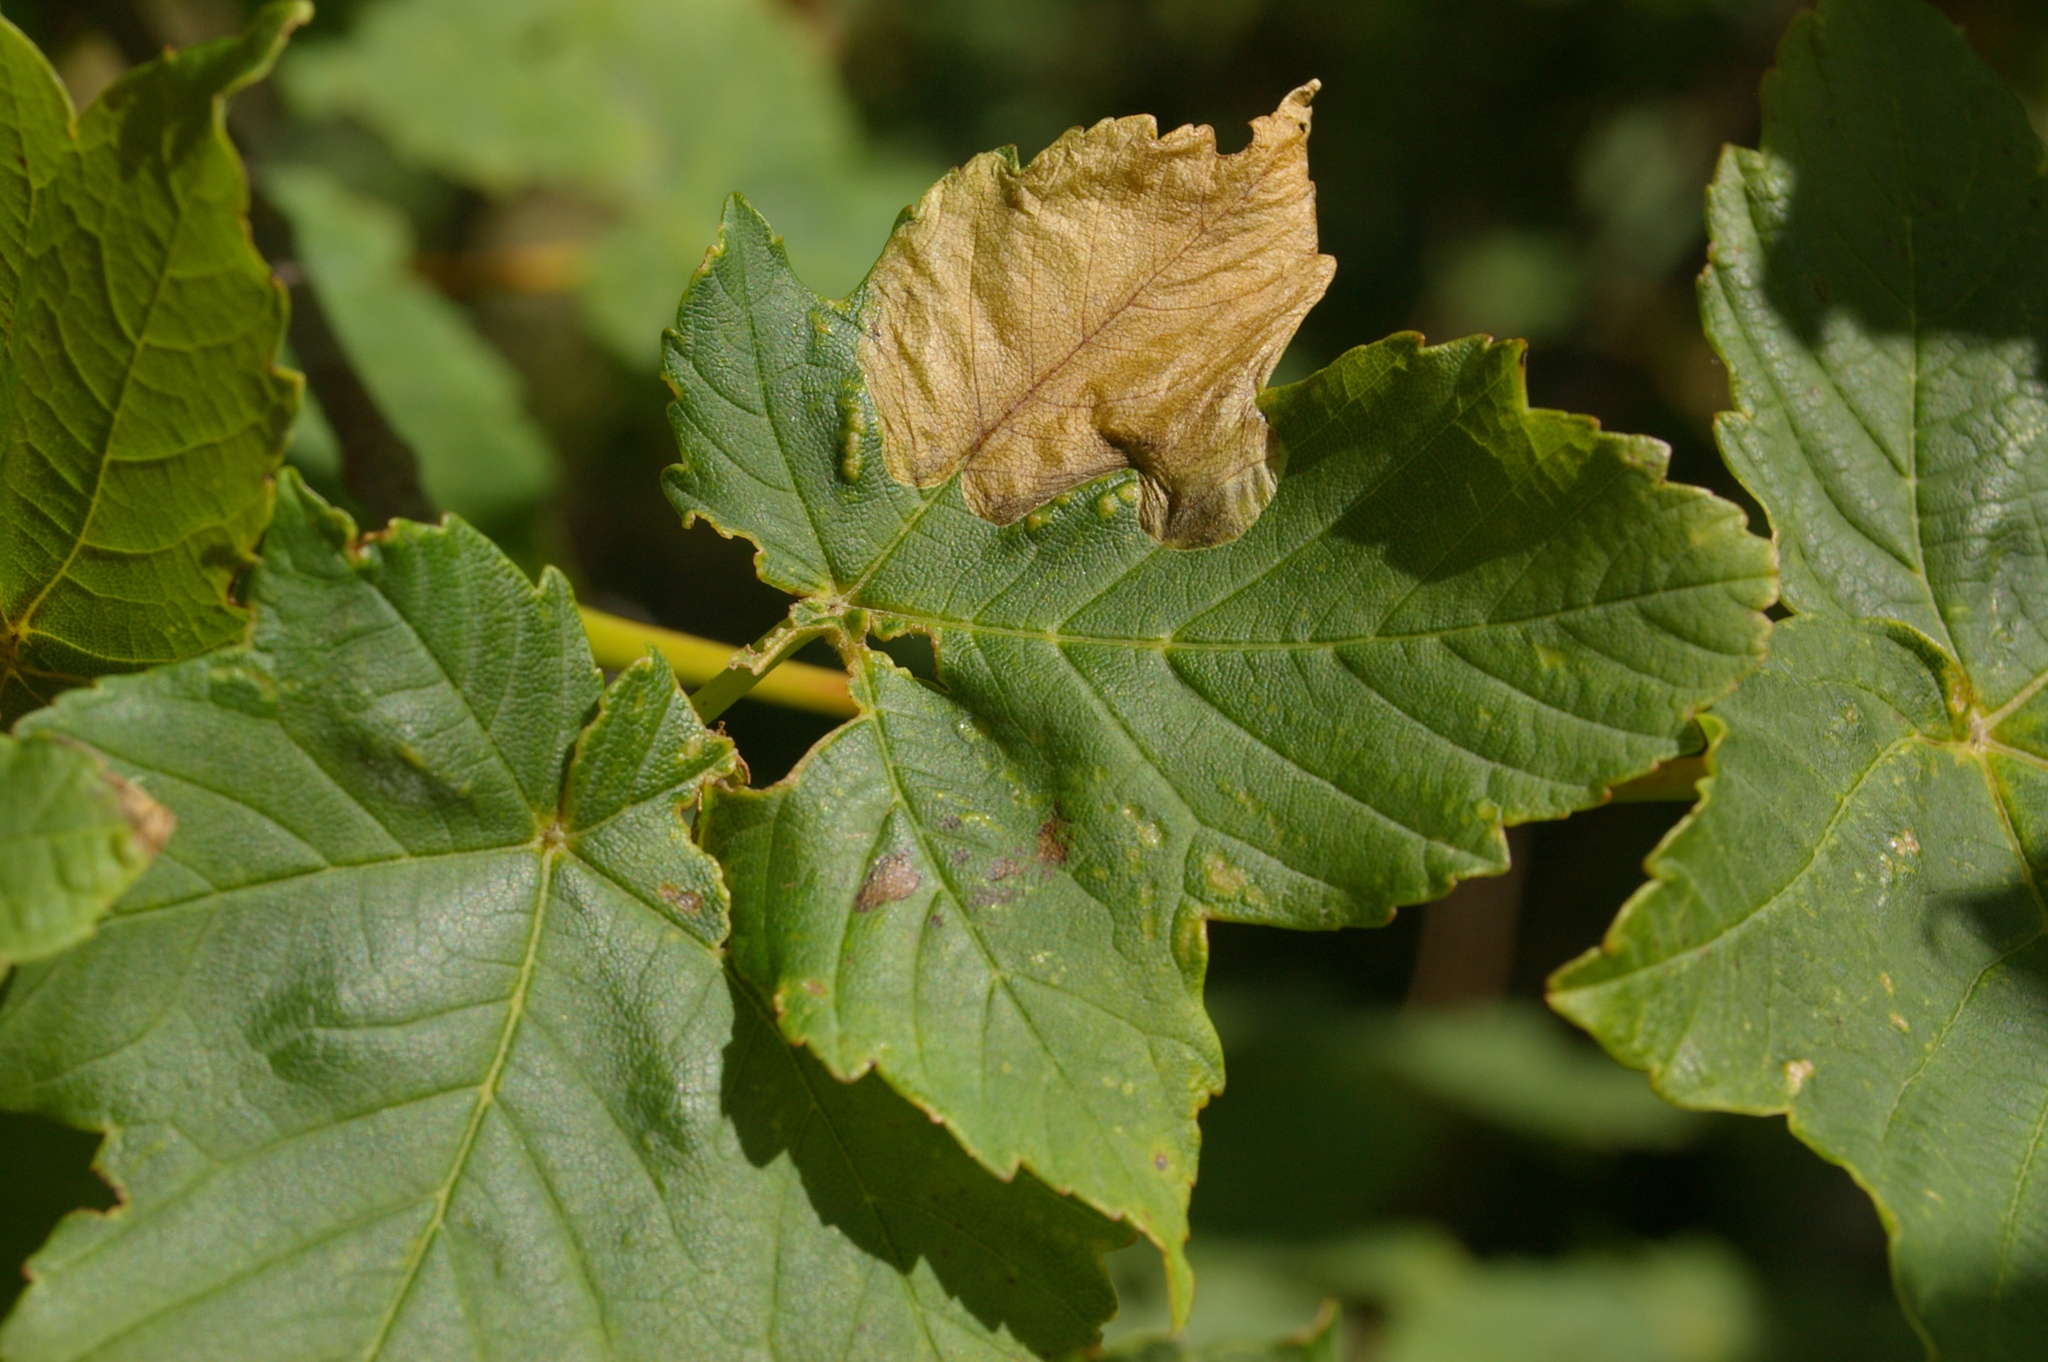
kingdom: Animalia
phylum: Arthropoda
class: Insecta
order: Hymenoptera
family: Tenthredinidae
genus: Heterarthrus
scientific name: Heterarthrus fiora
